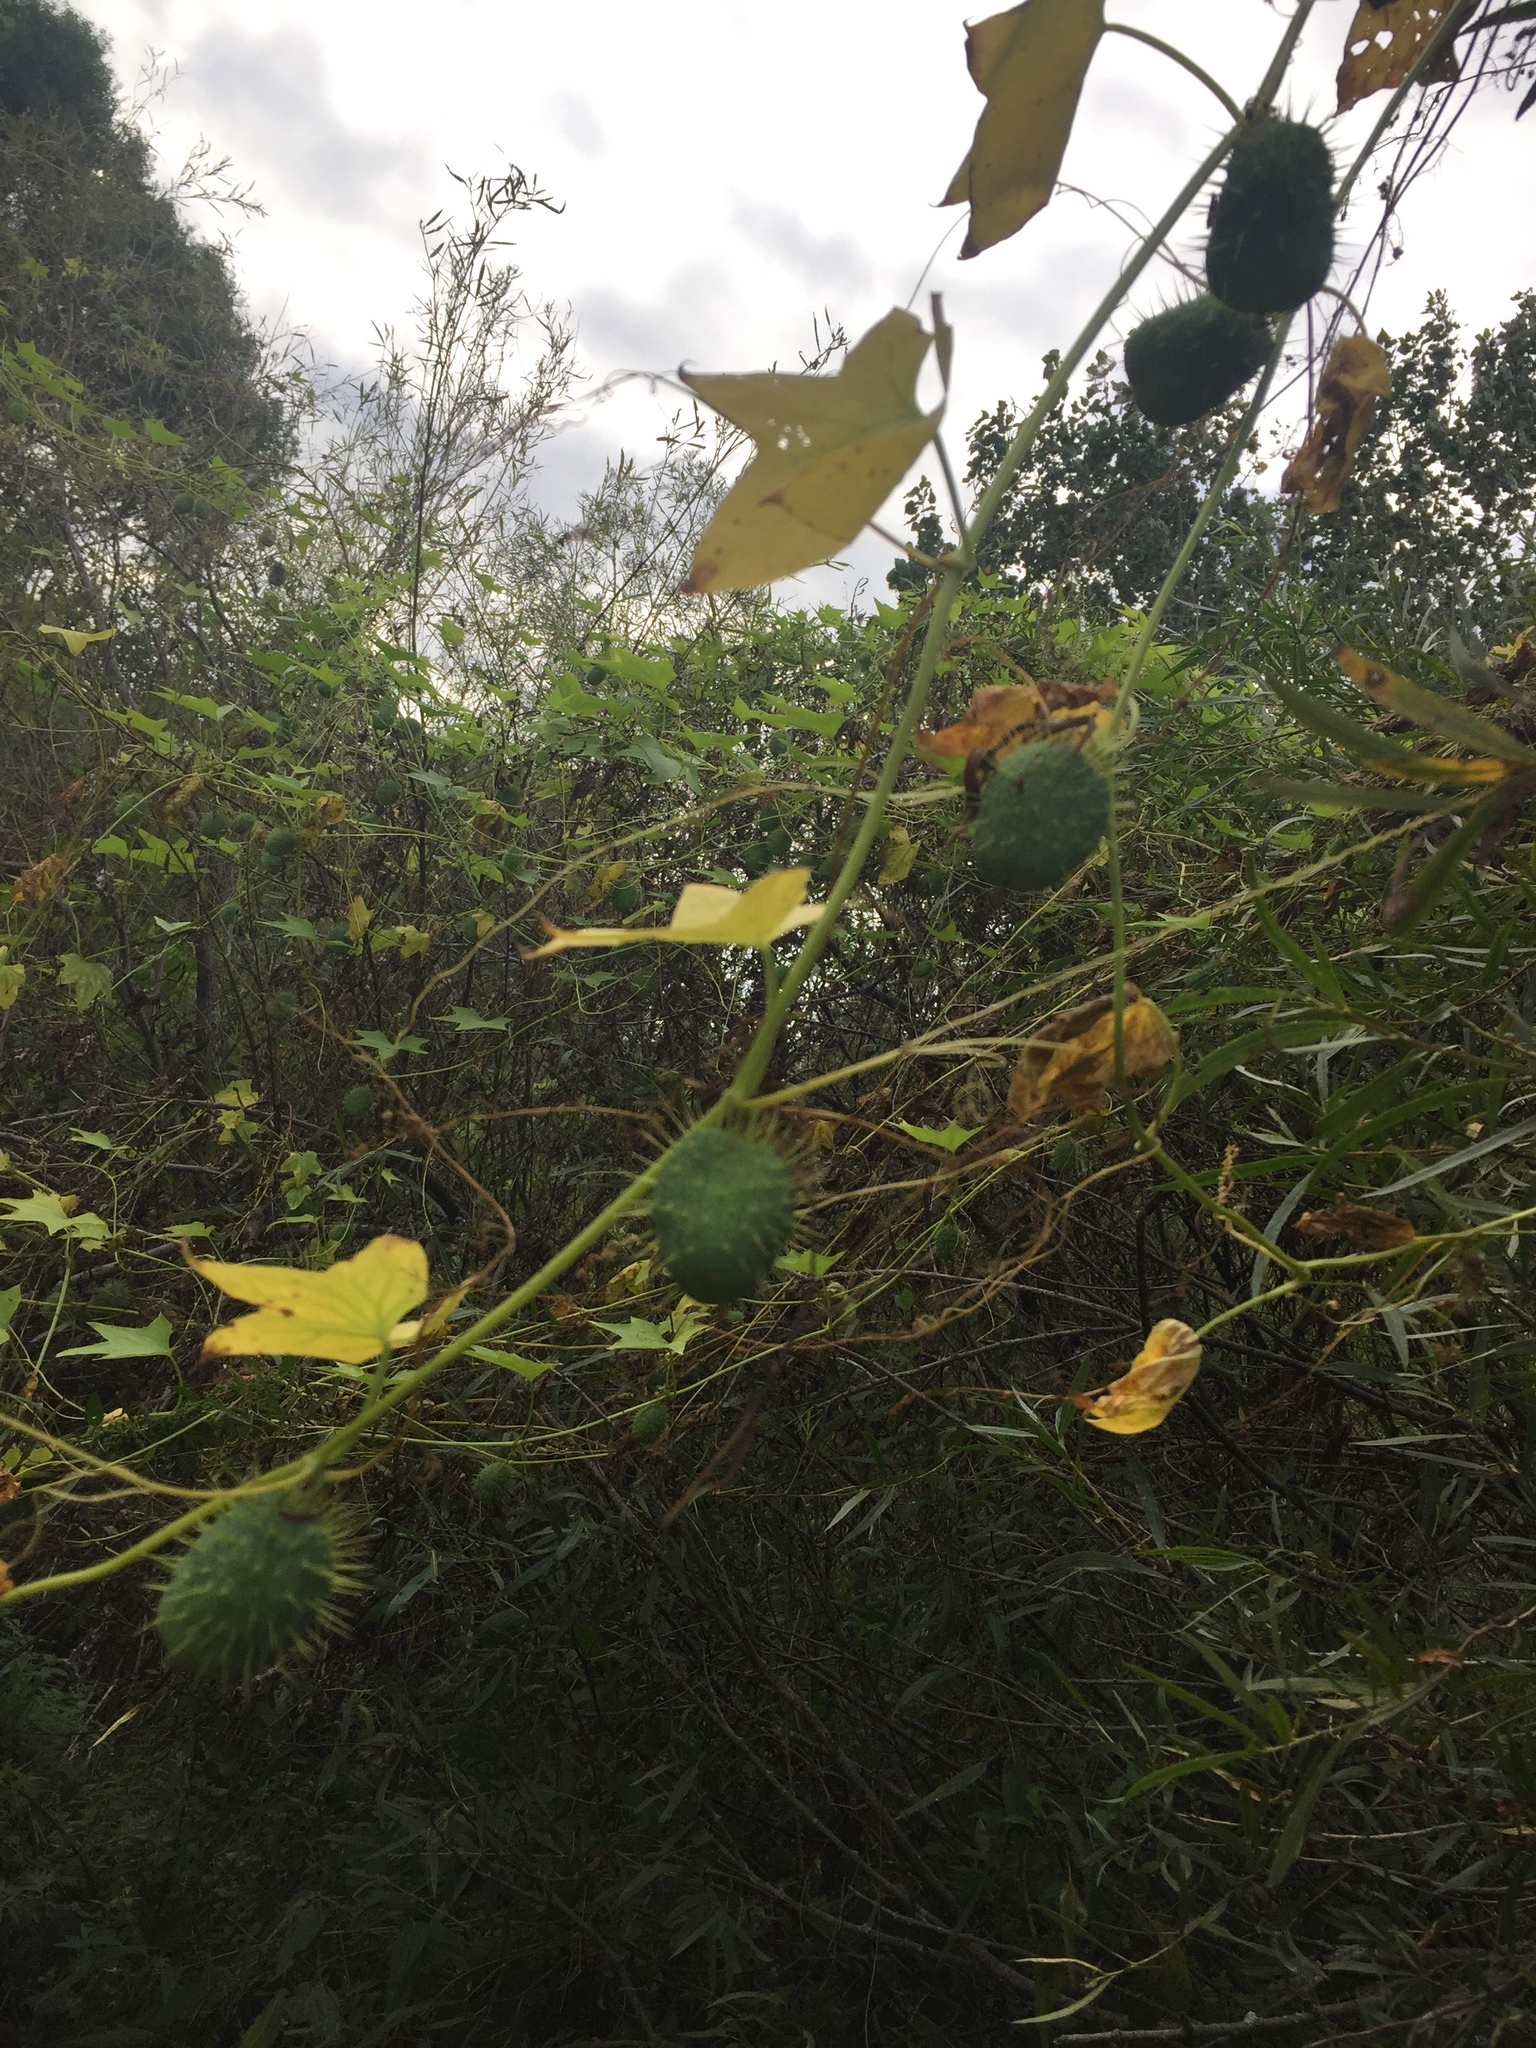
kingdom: Plantae
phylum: Tracheophyta
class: Magnoliopsida
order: Cucurbitales
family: Cucurbitaceae
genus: Echinocystis
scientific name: Echinocystis lobata
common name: Wild cucumber
